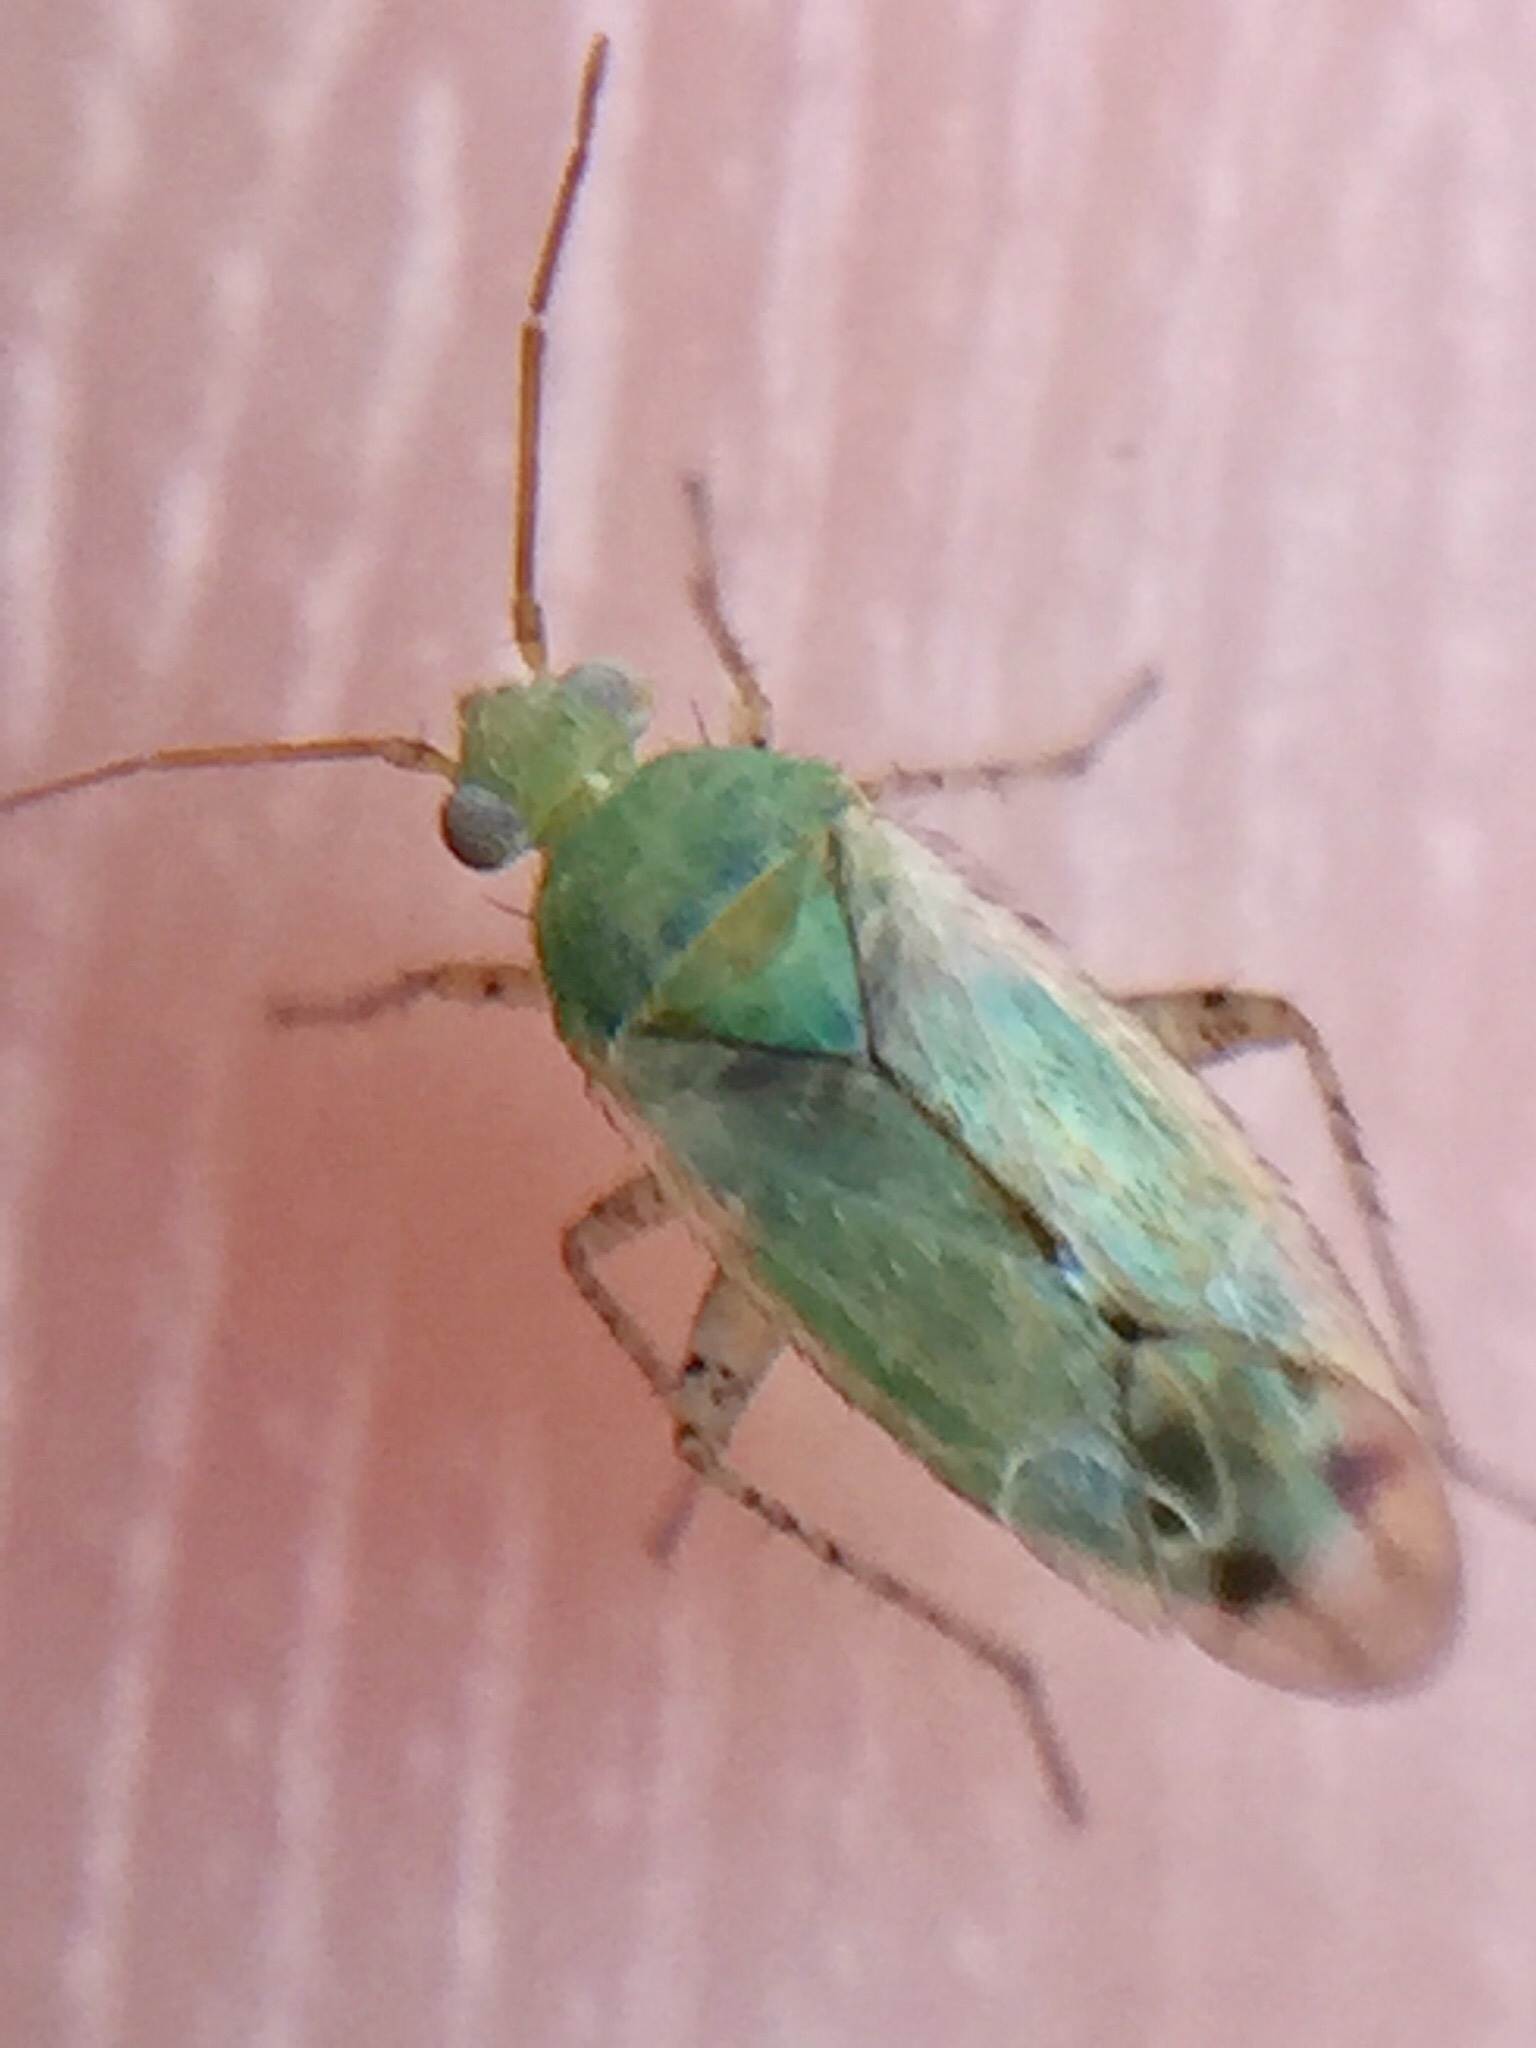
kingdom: Animalia
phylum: Arthropoda
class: Insecta
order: Hemiptera
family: Miridae
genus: Leptidolon
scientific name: Leptidolon
